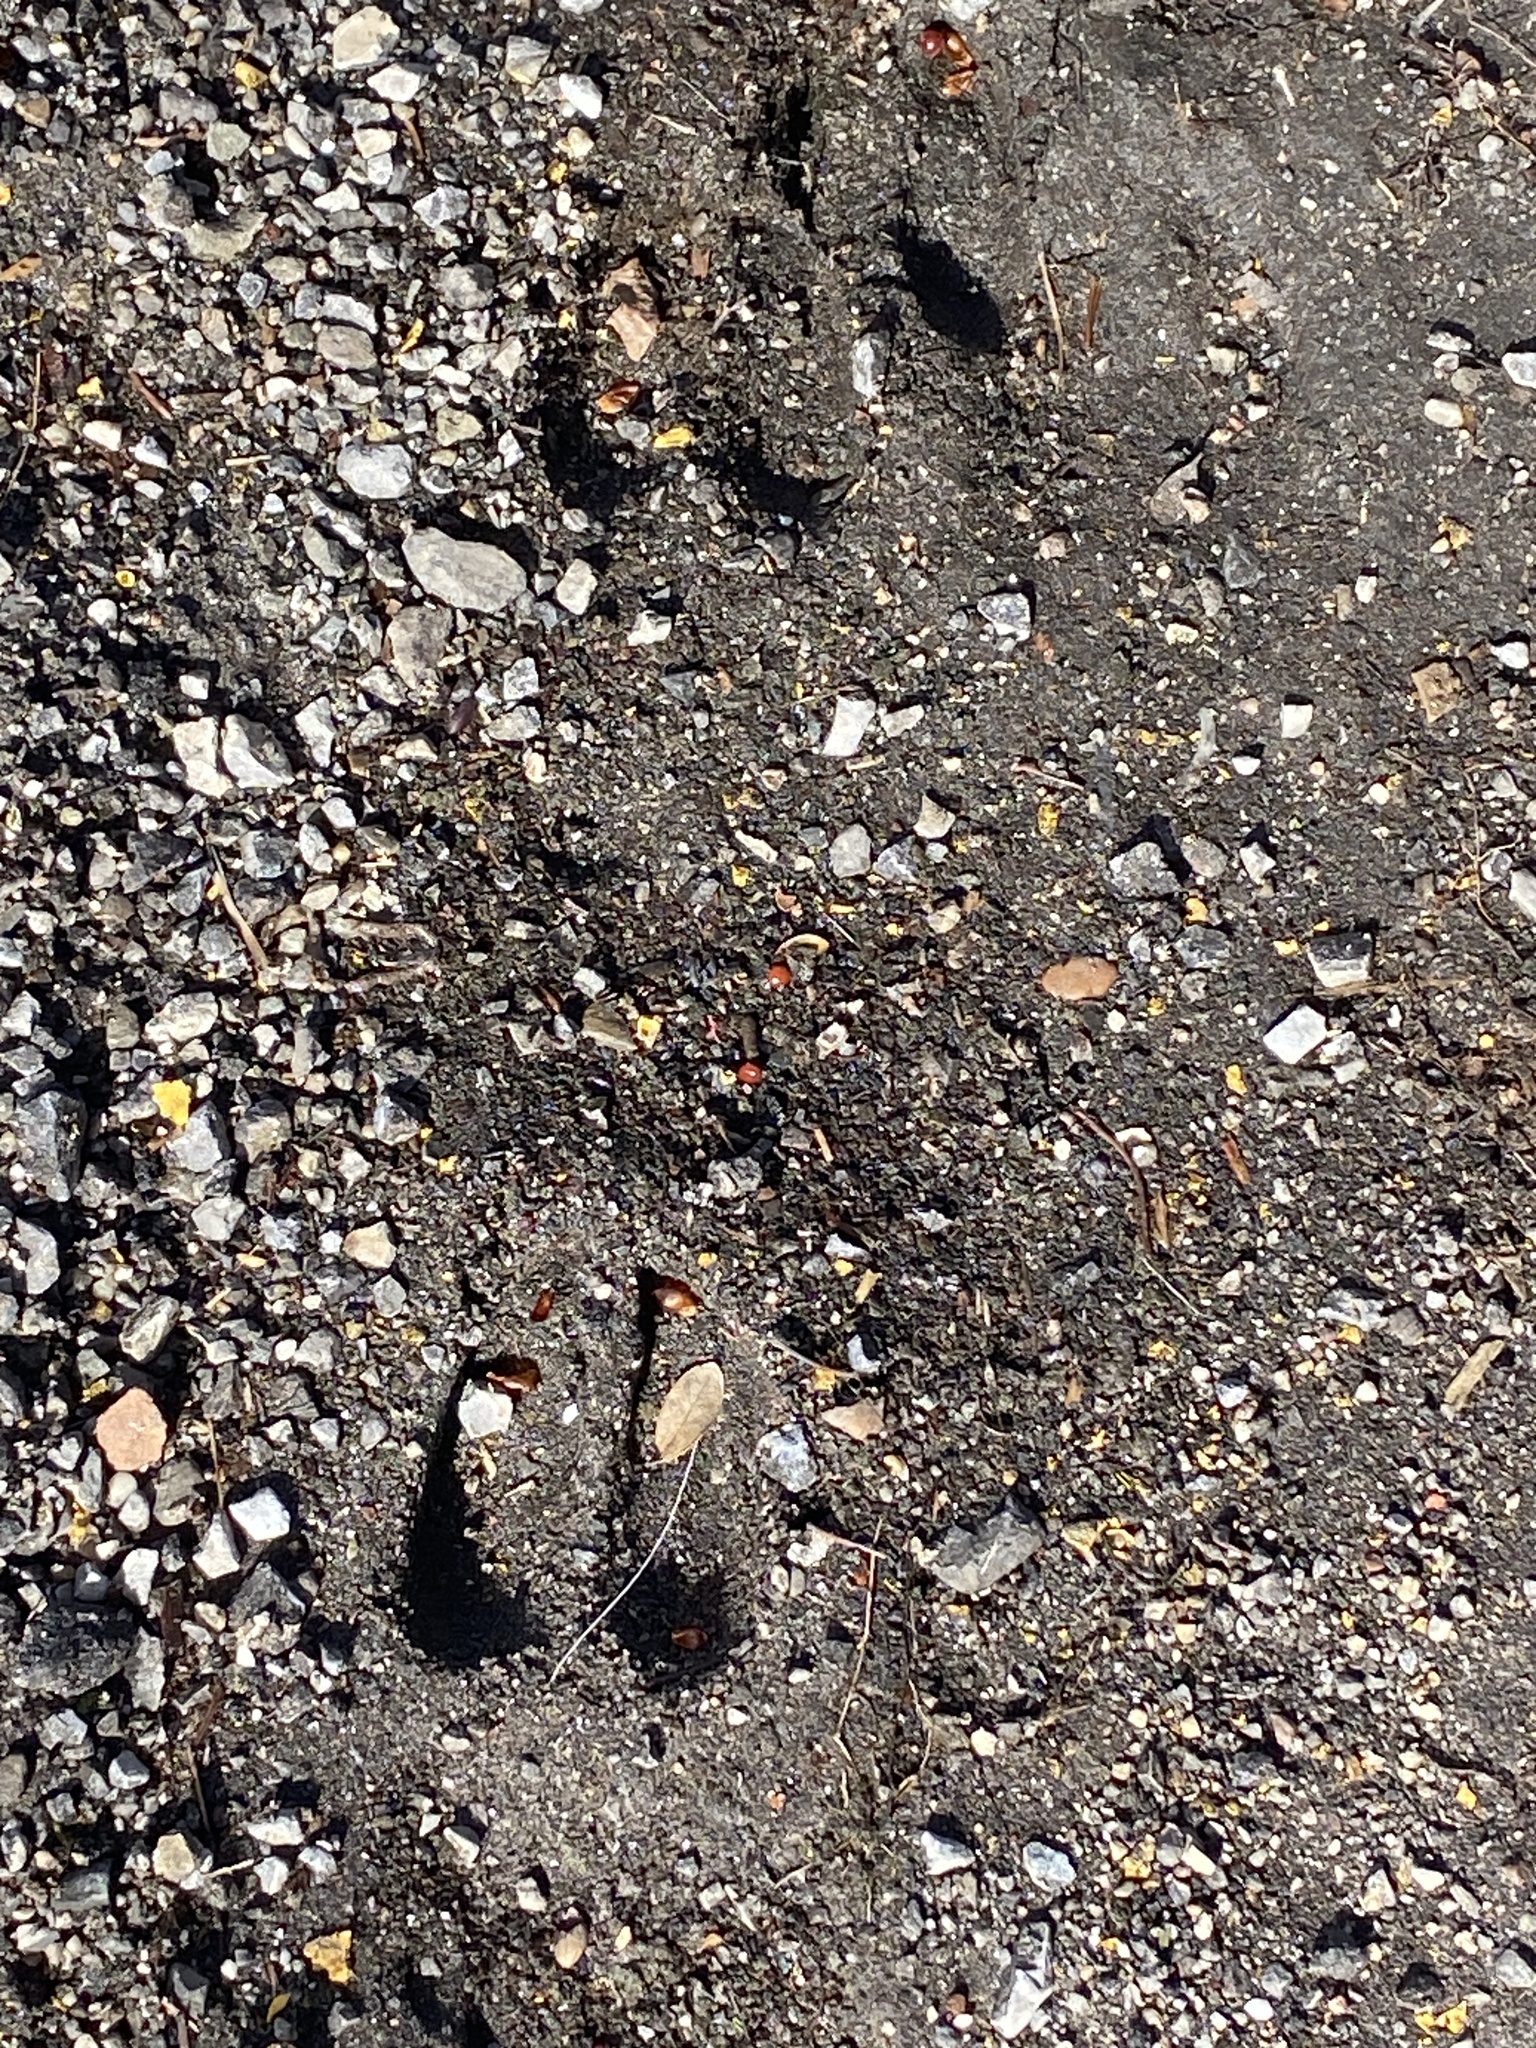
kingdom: Animalia
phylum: Chordata
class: Mammalia
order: Artiodactyla
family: Cervidae
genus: Odocoileus
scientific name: Odocoileus virginianus
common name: White-tailed deer
